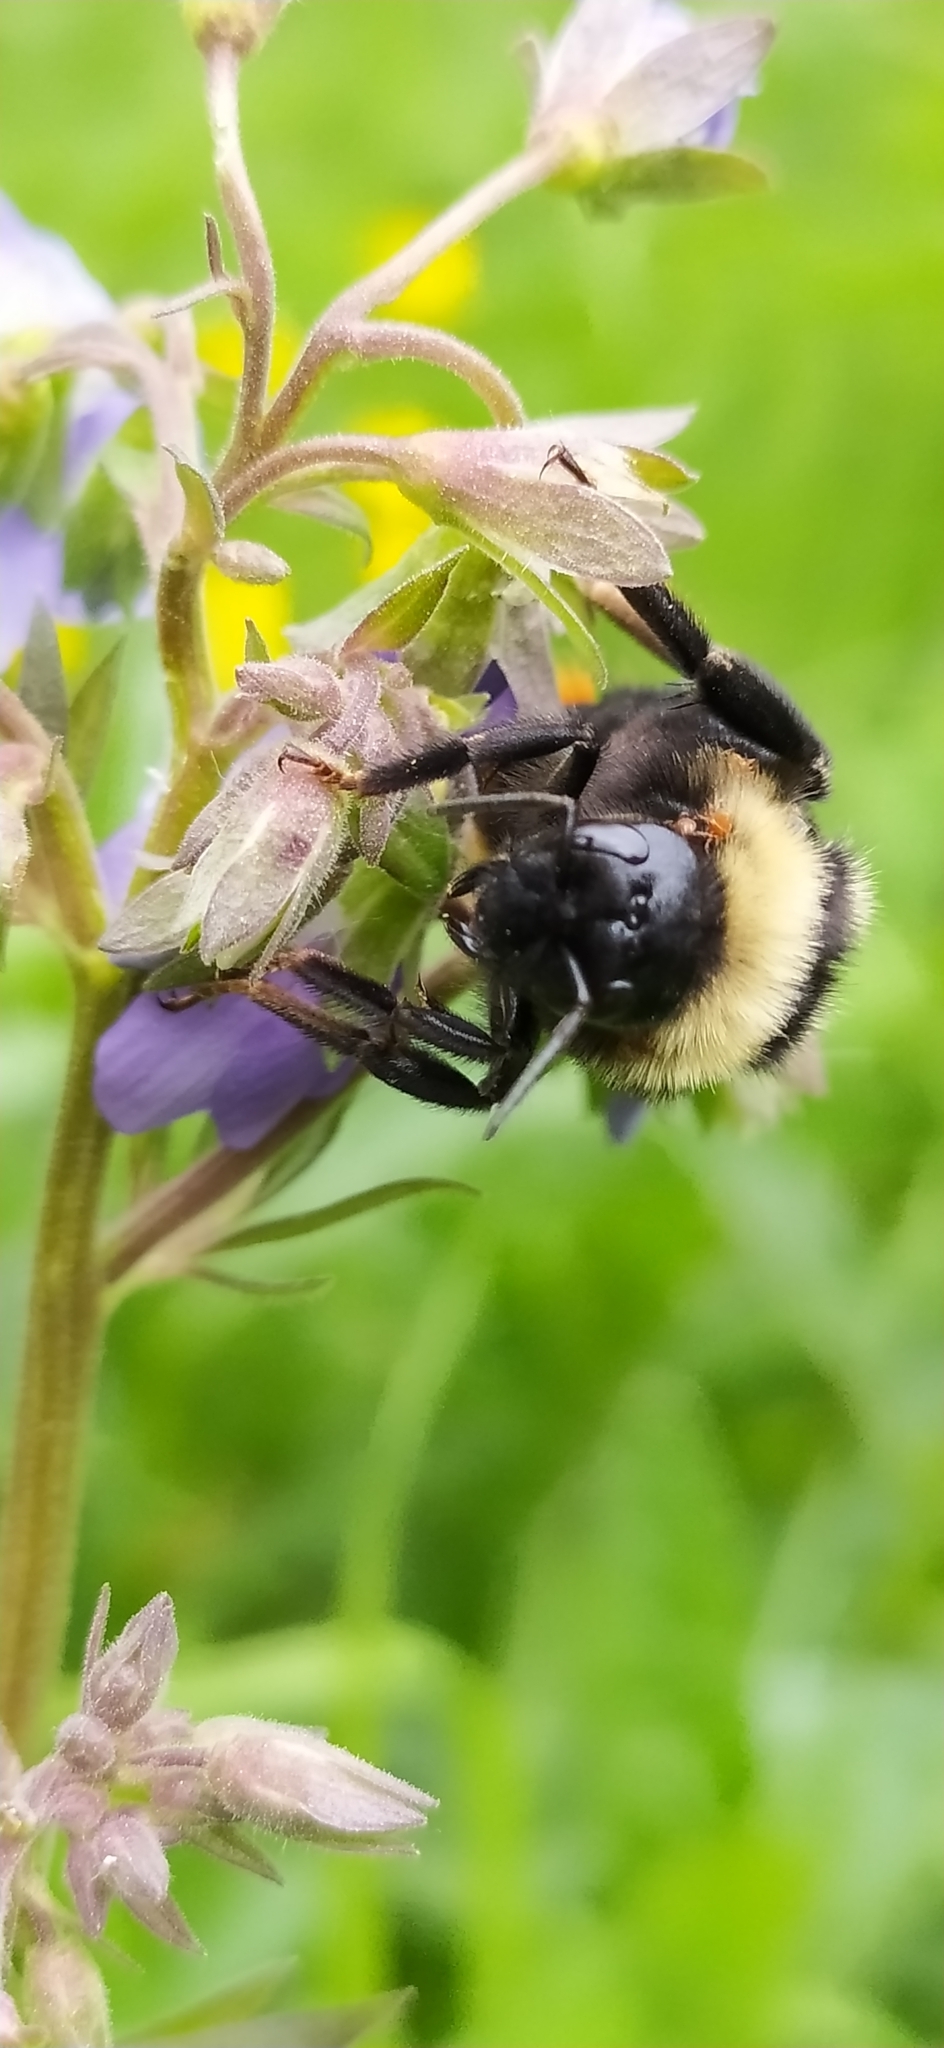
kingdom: Animalia
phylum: Arthropoda
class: Insecta
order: Hymenoptera
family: Apidae
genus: Bombus
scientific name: Bombus rupestris
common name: Hill cuckoo-bee
